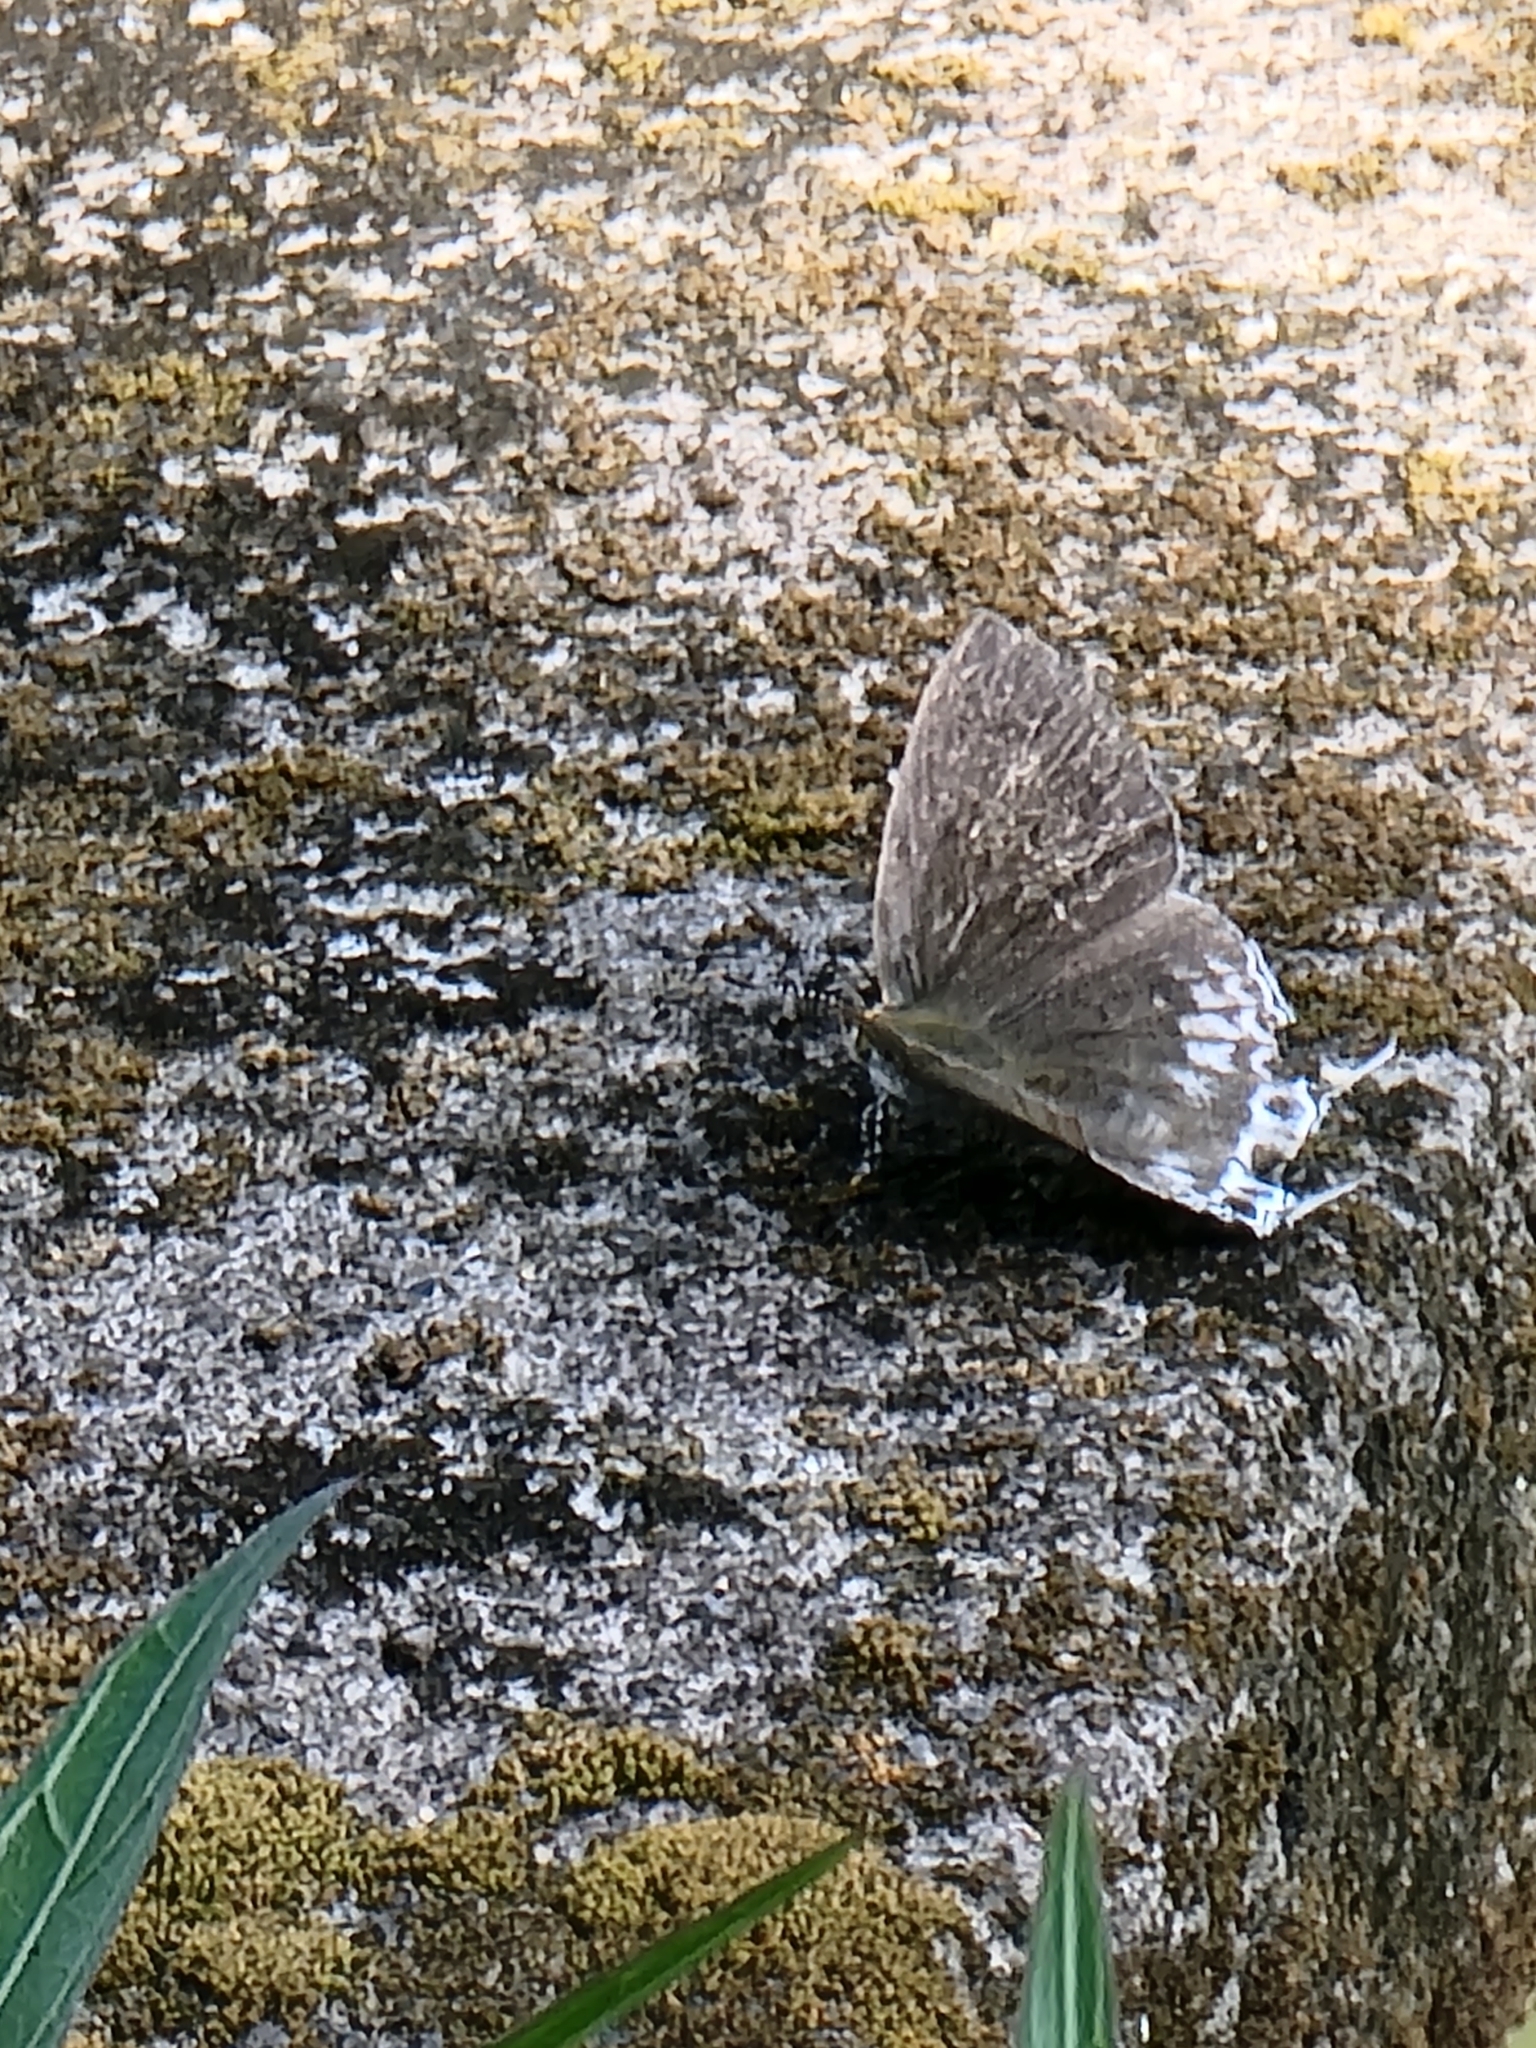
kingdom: Animalia
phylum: Arthropoda
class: Insecta
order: Lepidoptera
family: Lycaenidae
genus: Hypolycaena
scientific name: Hypolycaena sipylus
